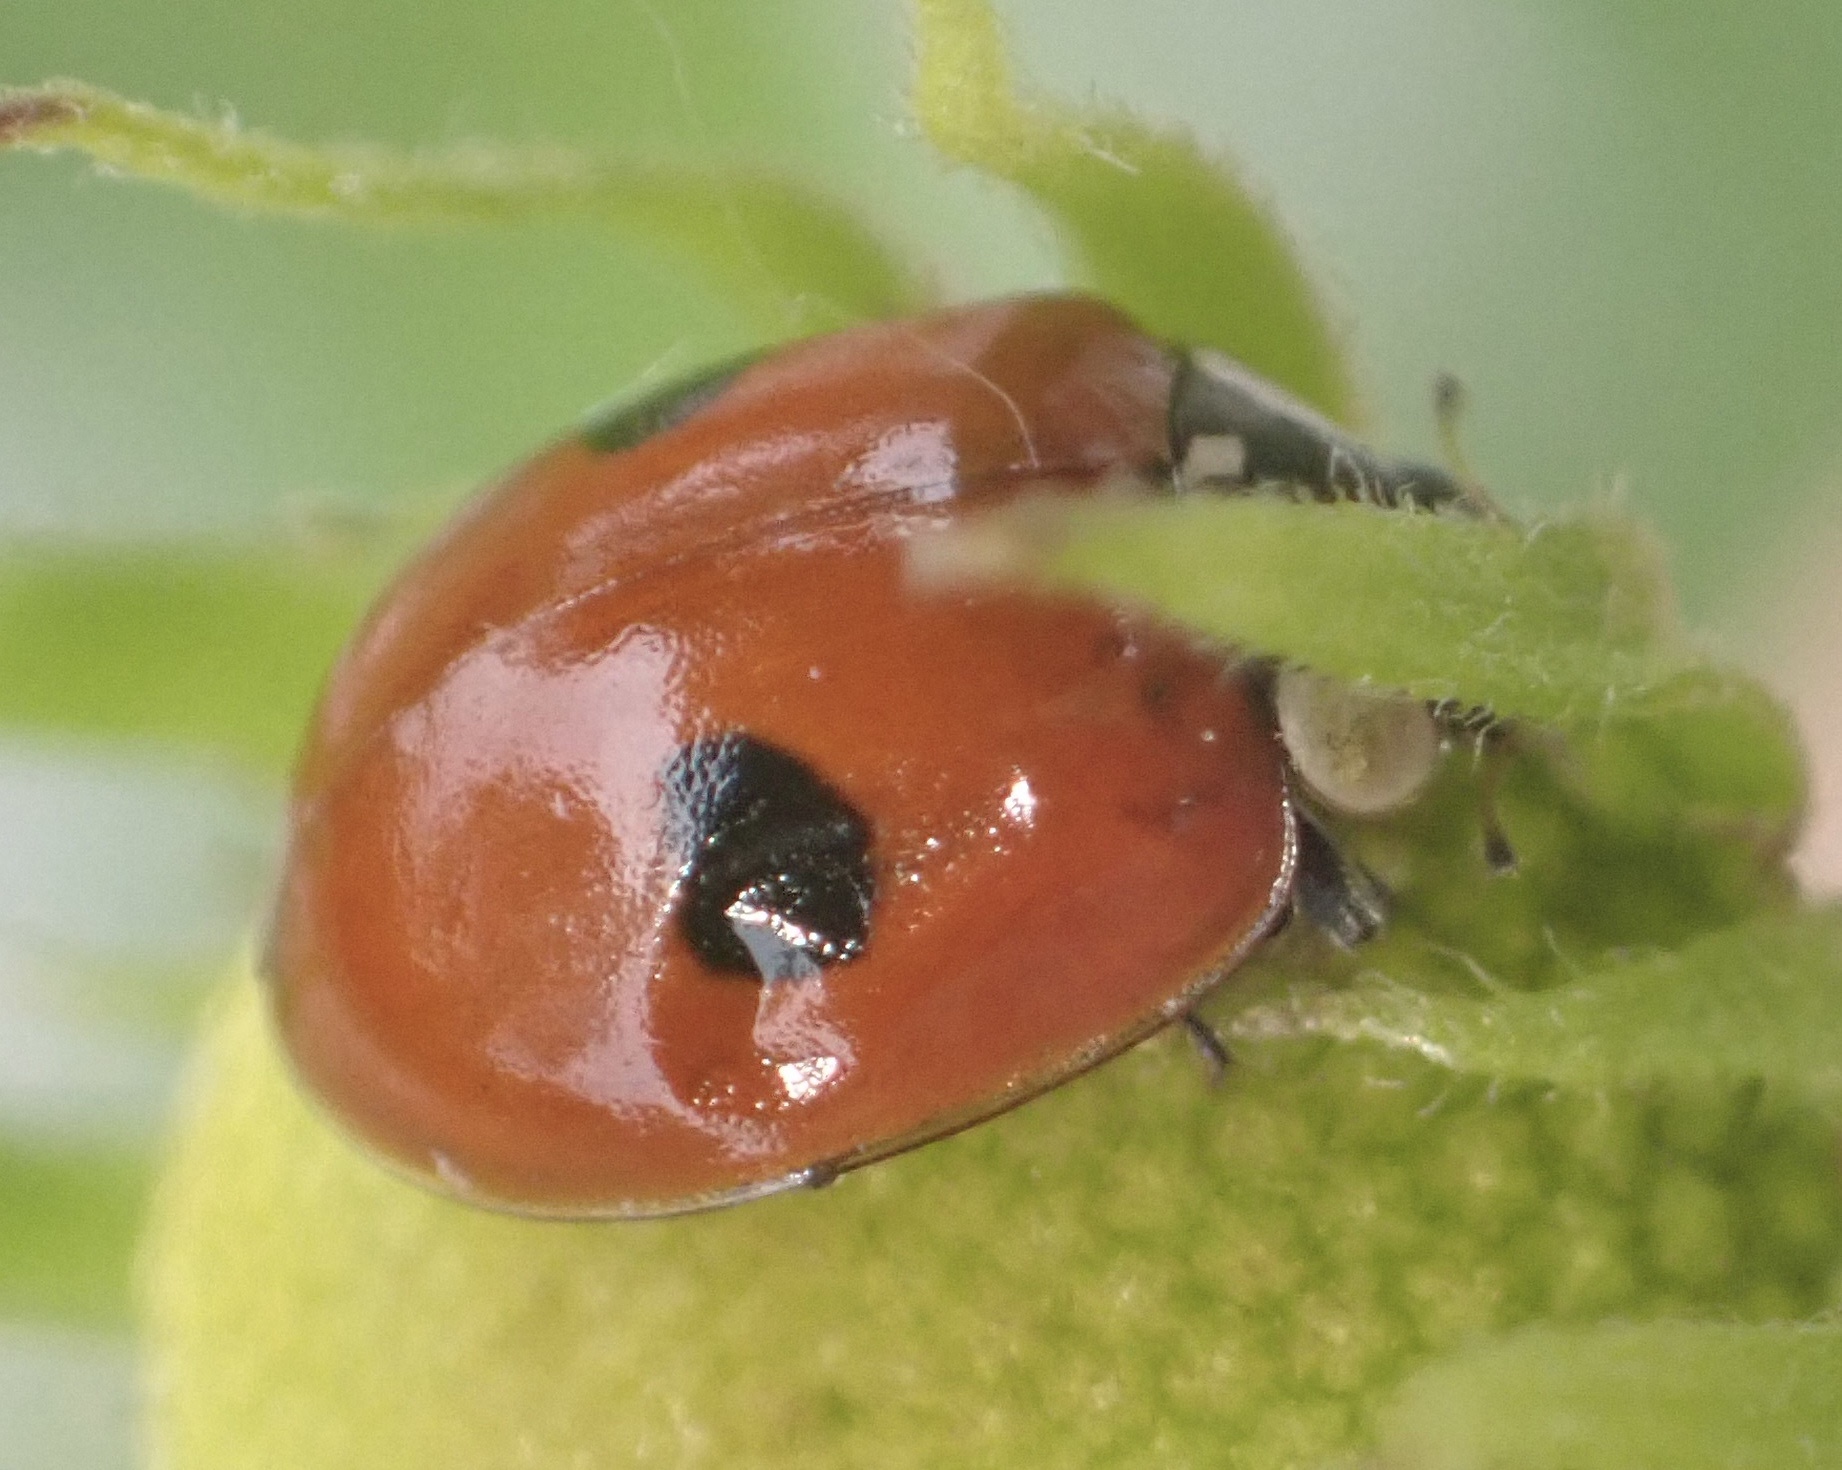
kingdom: Animalia
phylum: Arthropoda
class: Insecta
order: Coleoptera
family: Coccinellidae
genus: Adalia
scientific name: Adalia bipunctata
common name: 2-spot ladybird
